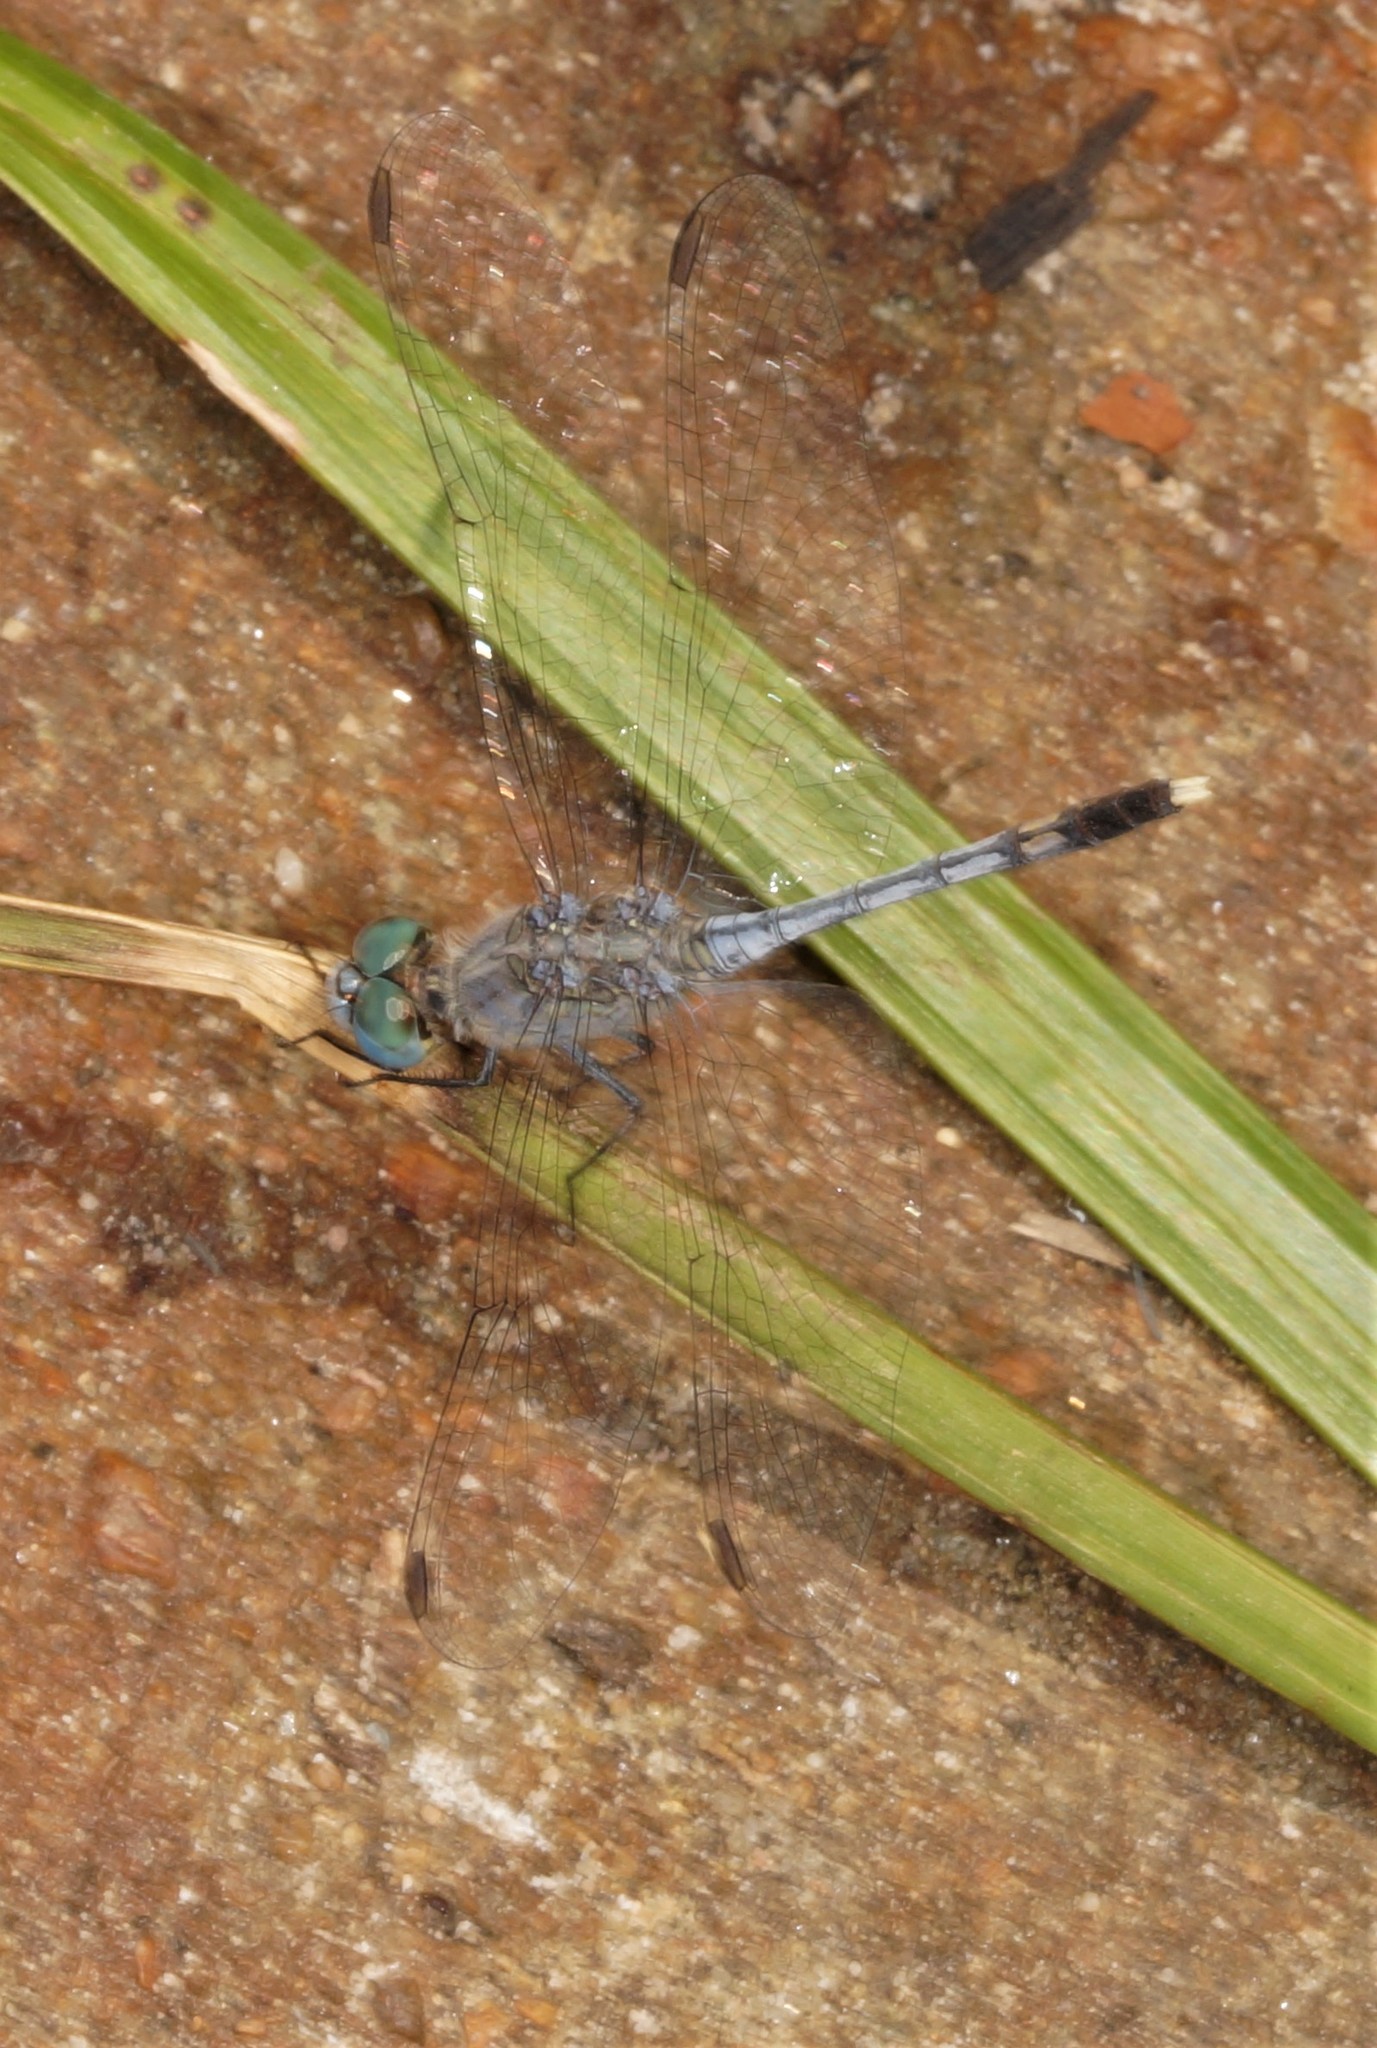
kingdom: Animalia
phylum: Arthropoda
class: Insecta
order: Odonata
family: Libellulidae
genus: Diplacodes
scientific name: Diplacodes trivialis
